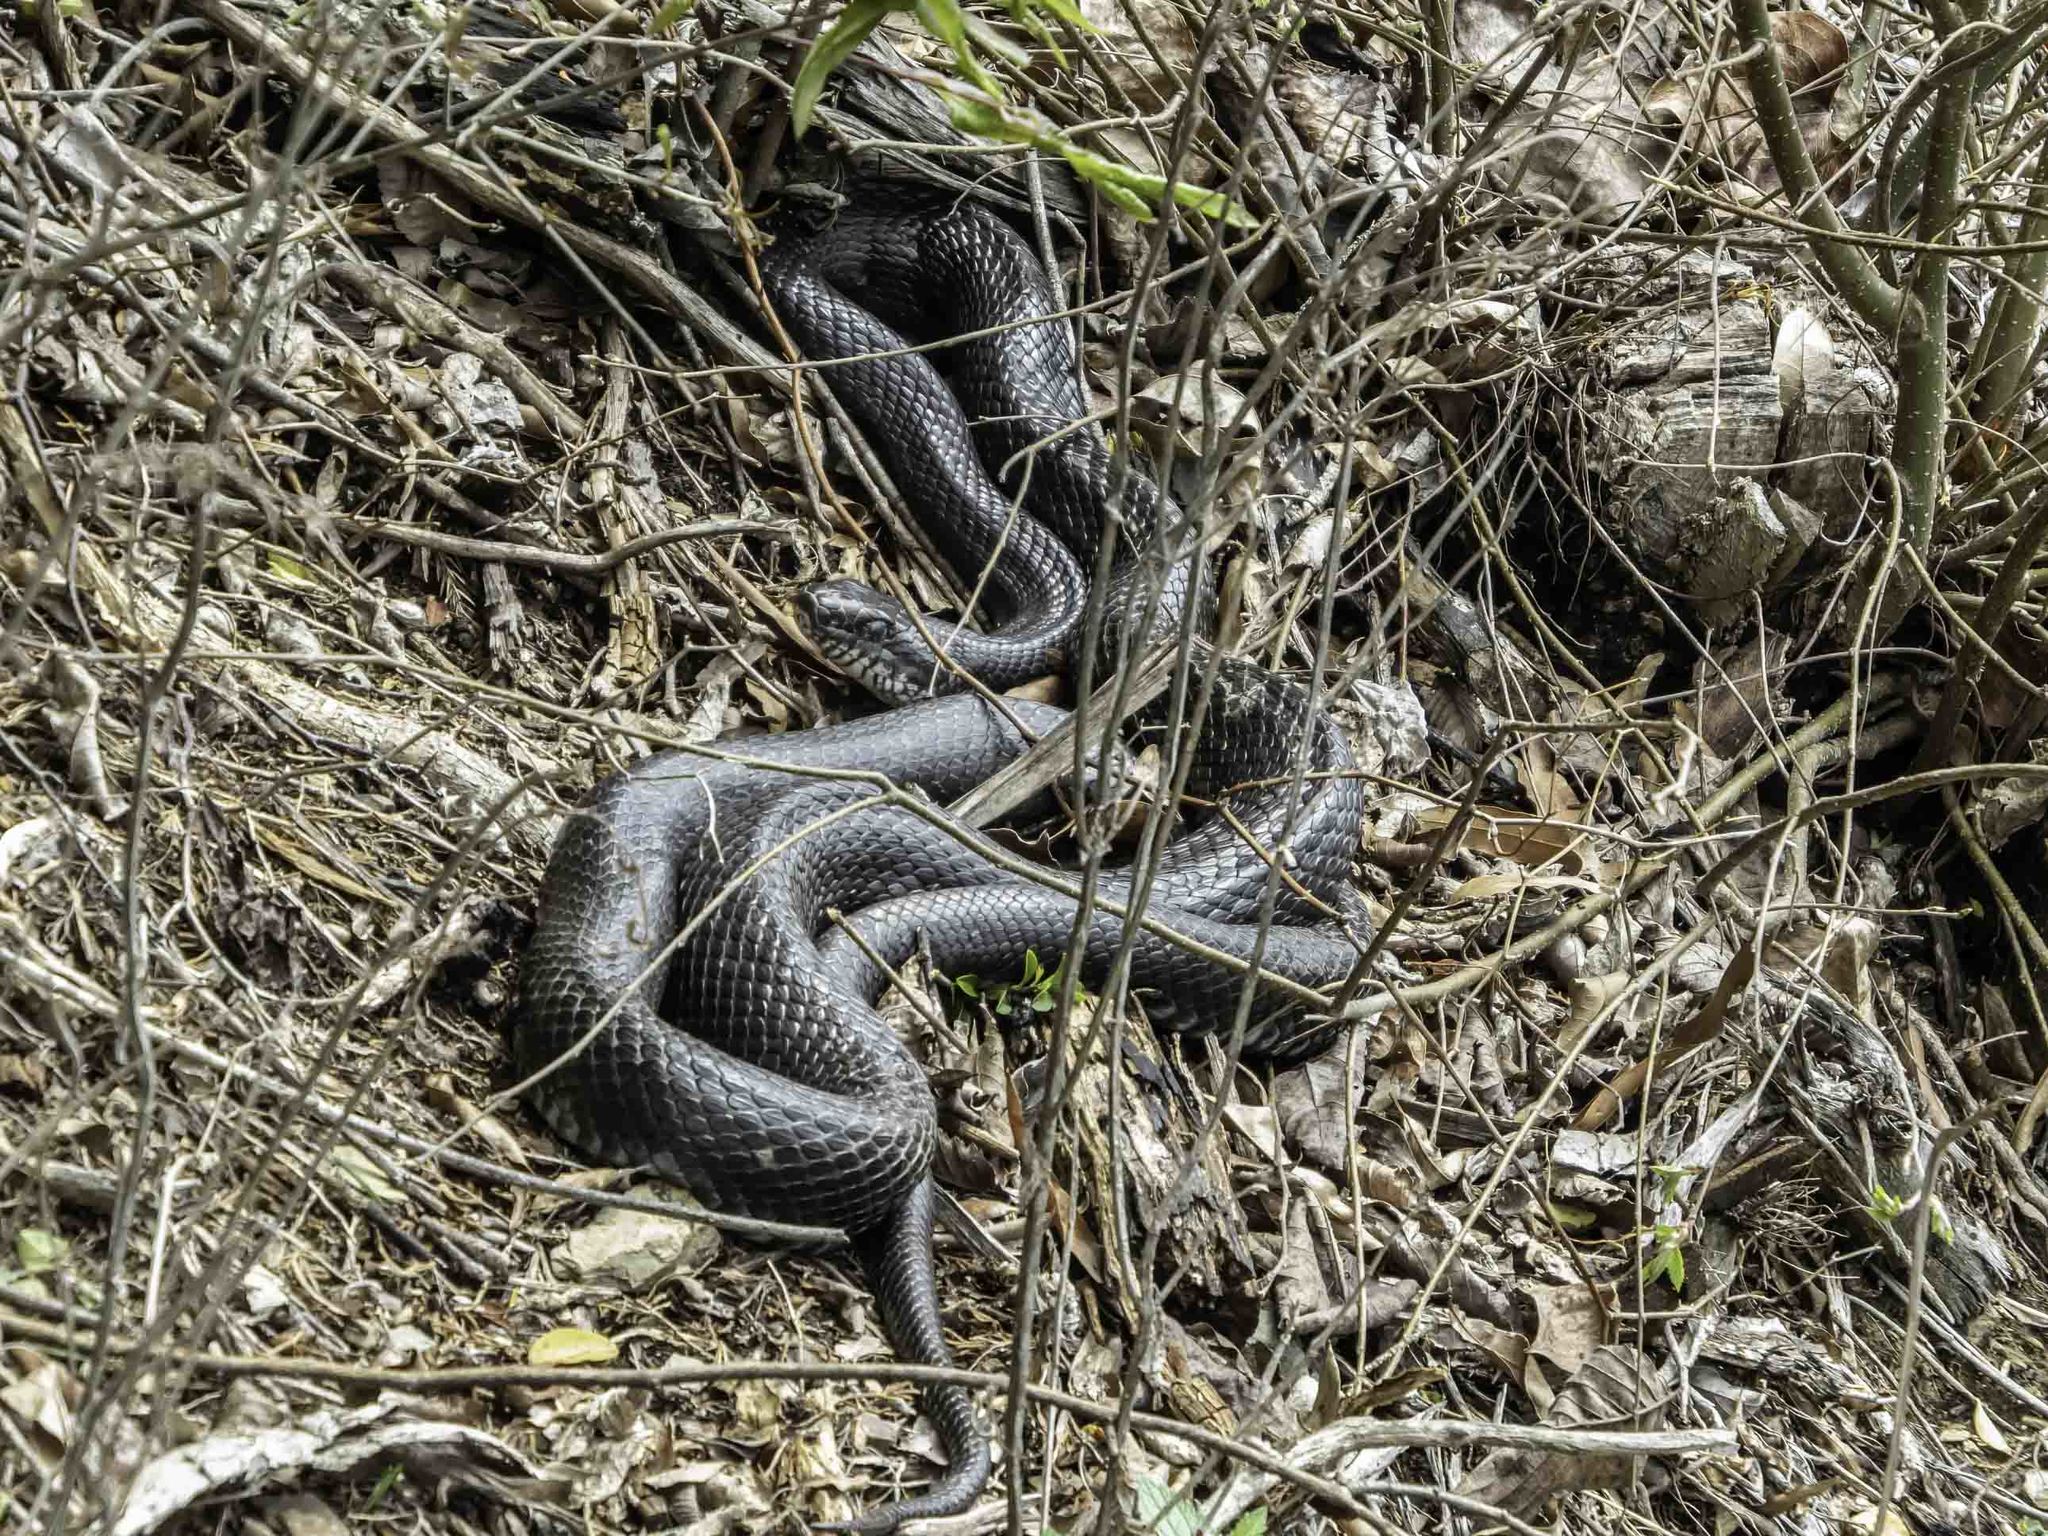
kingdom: Animalia
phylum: Chordata
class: Squamata
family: Colubridae
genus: Pantherophis
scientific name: Pantherophis alleghaniensis
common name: Eastern rat snake
